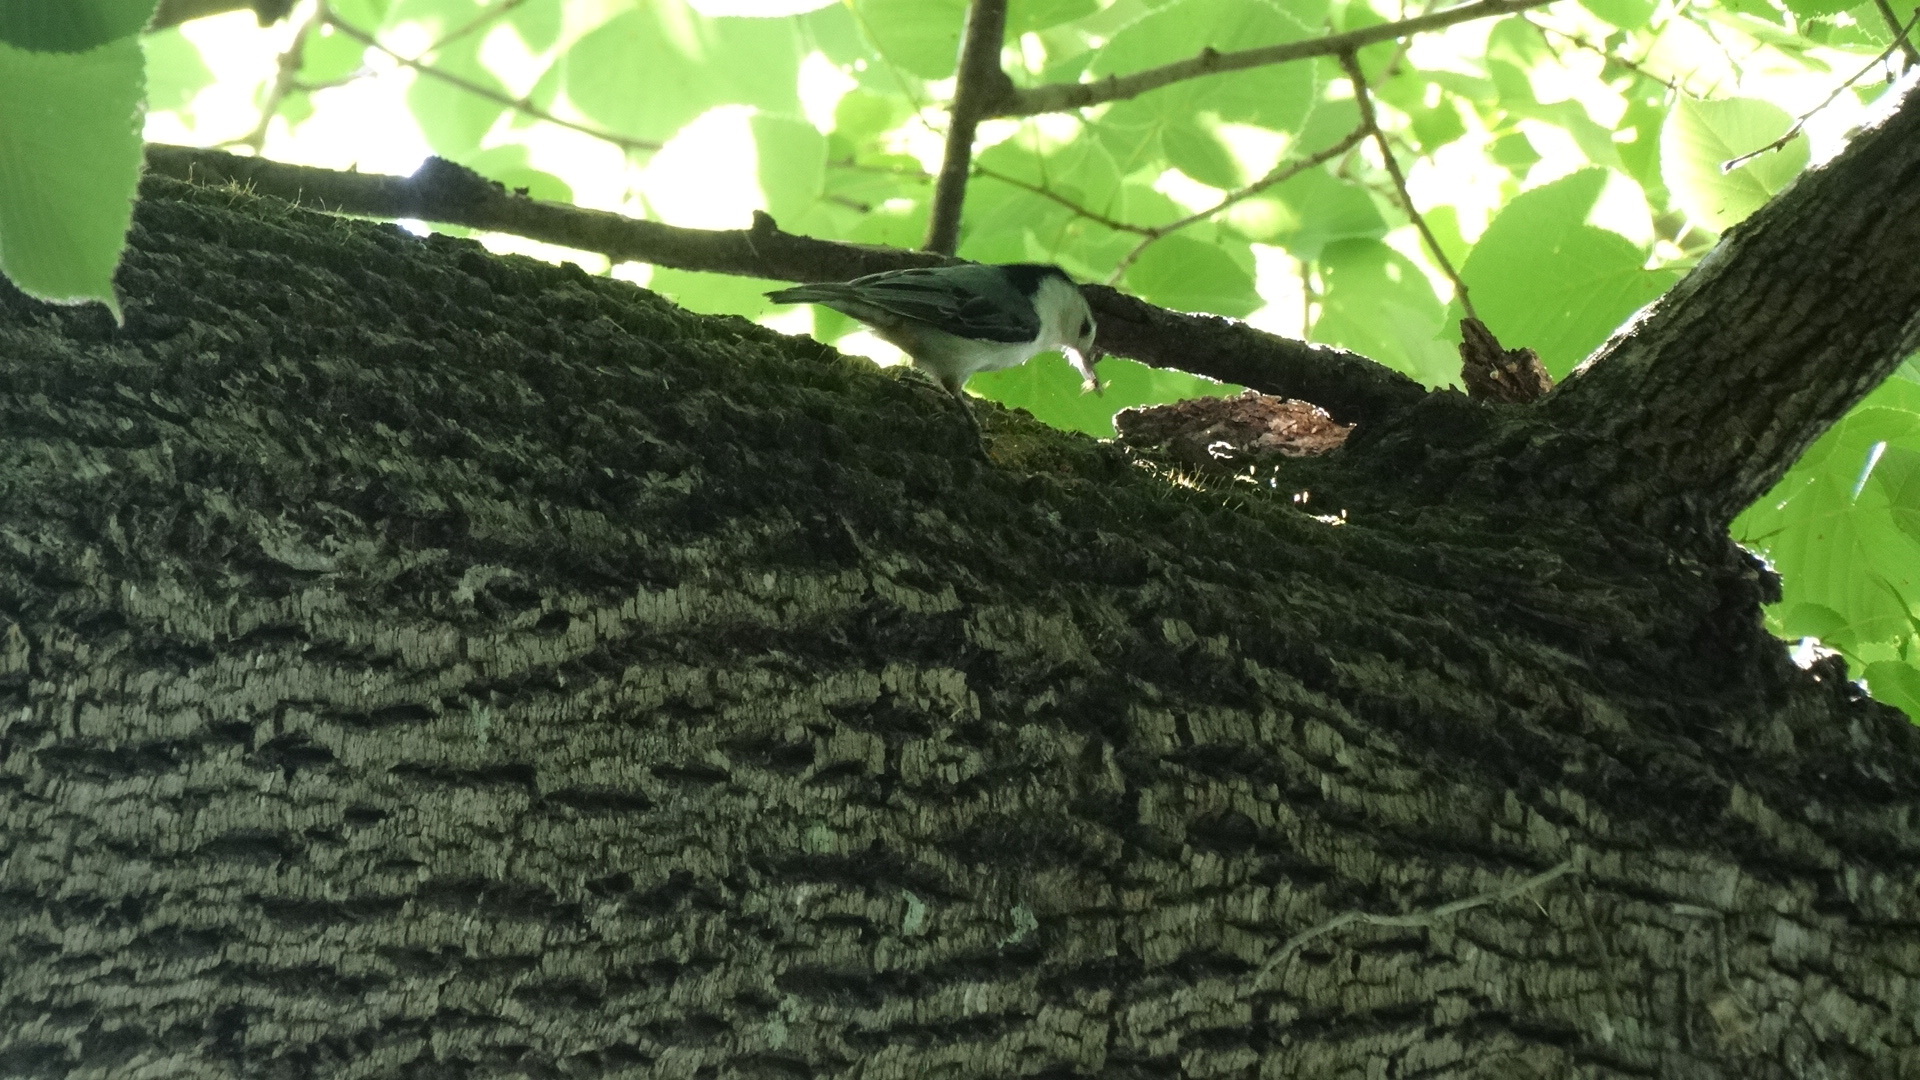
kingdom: Animalia
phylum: Chordata
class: Aves
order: Passeriformes
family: Sittidae
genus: Sitta
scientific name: Sitta carolinensis
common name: White-breasted nuthatch
